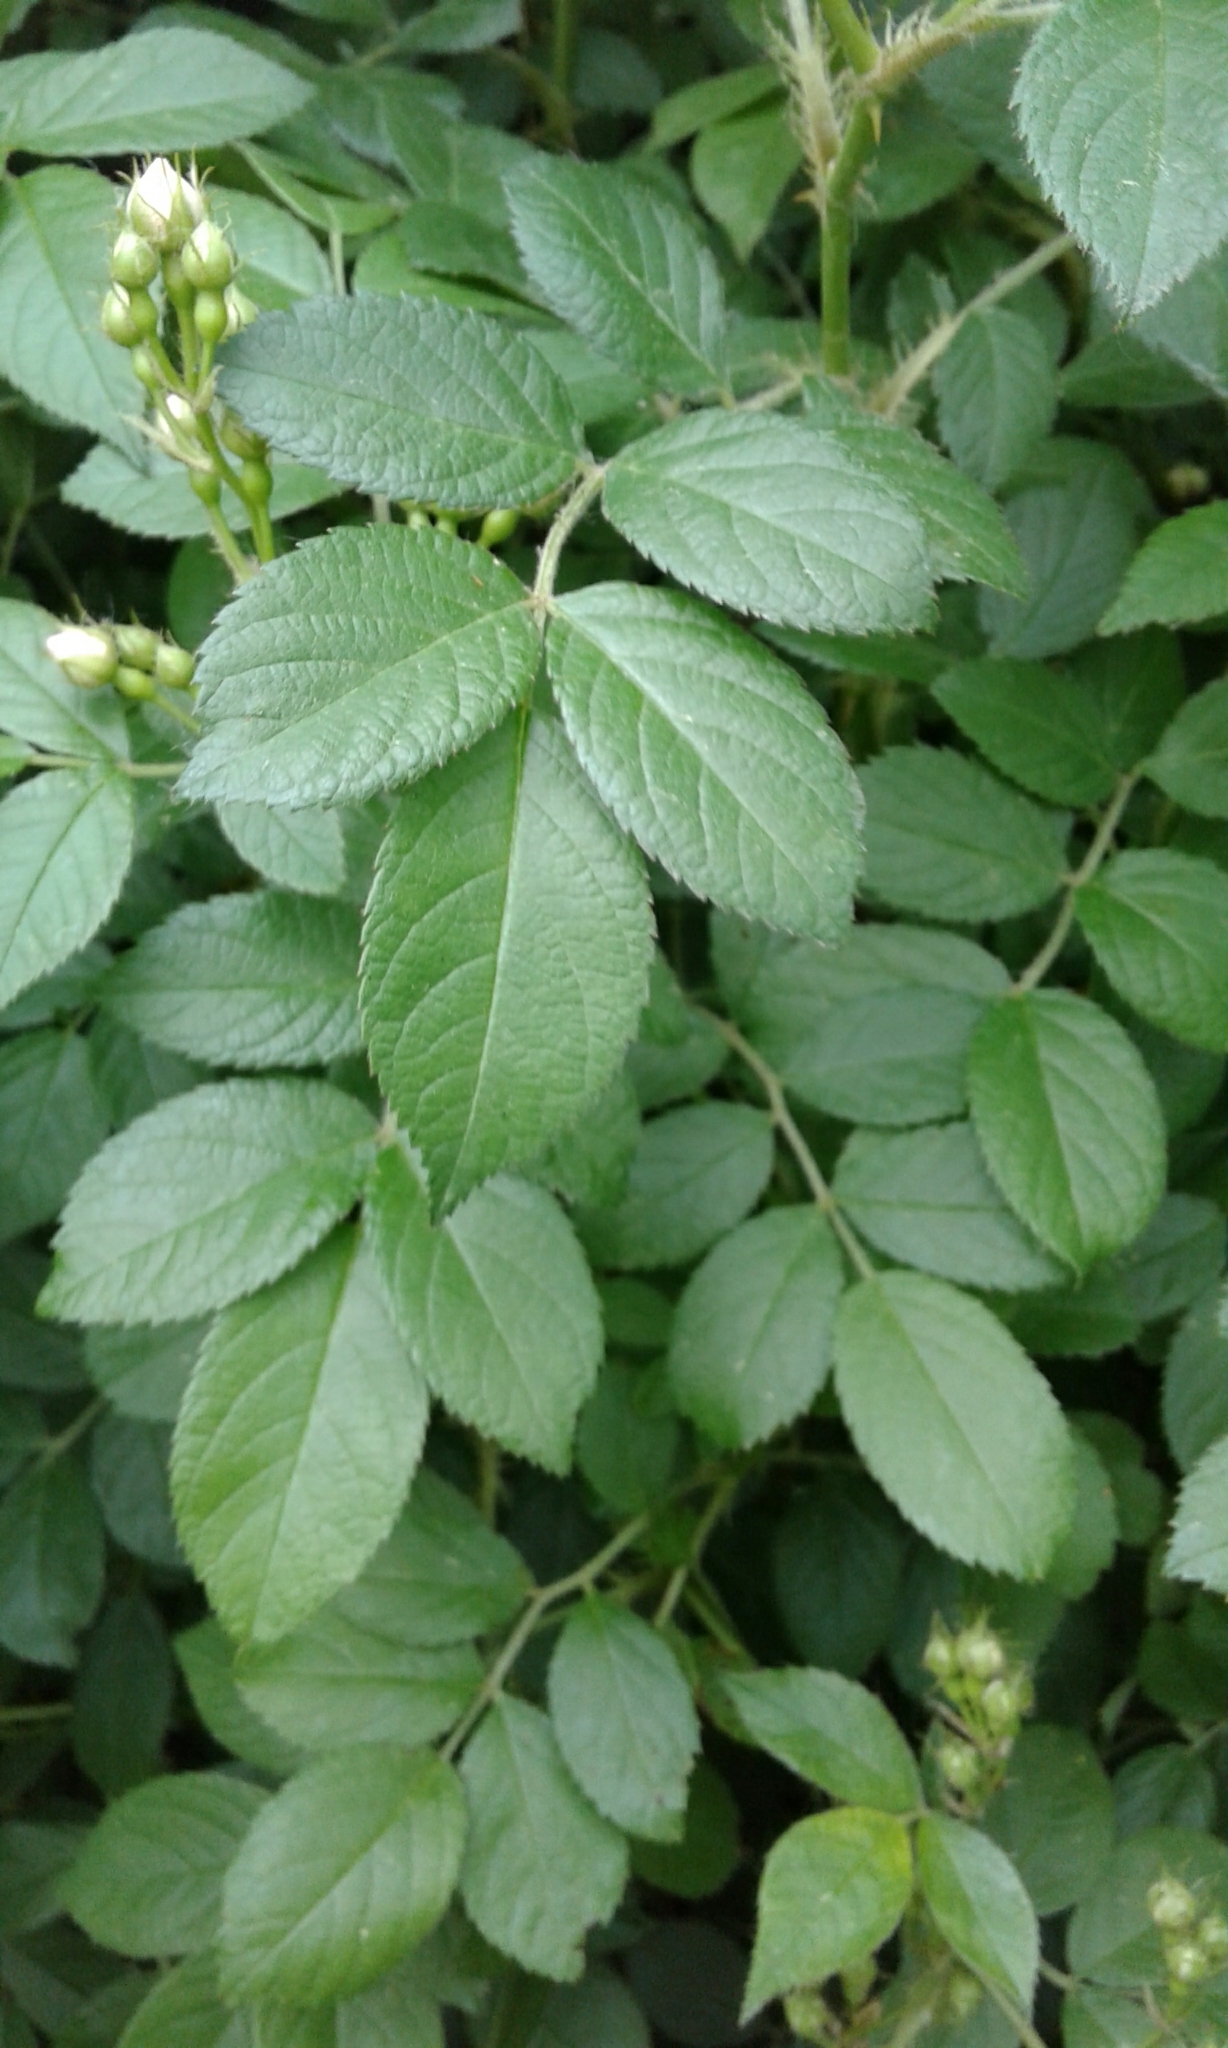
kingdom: Plantae
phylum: Tracheophyta
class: Magnoliopsida
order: Rosales
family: Rosaceae
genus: Rosa
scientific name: Rosa multiflora
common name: Multiflora rose
